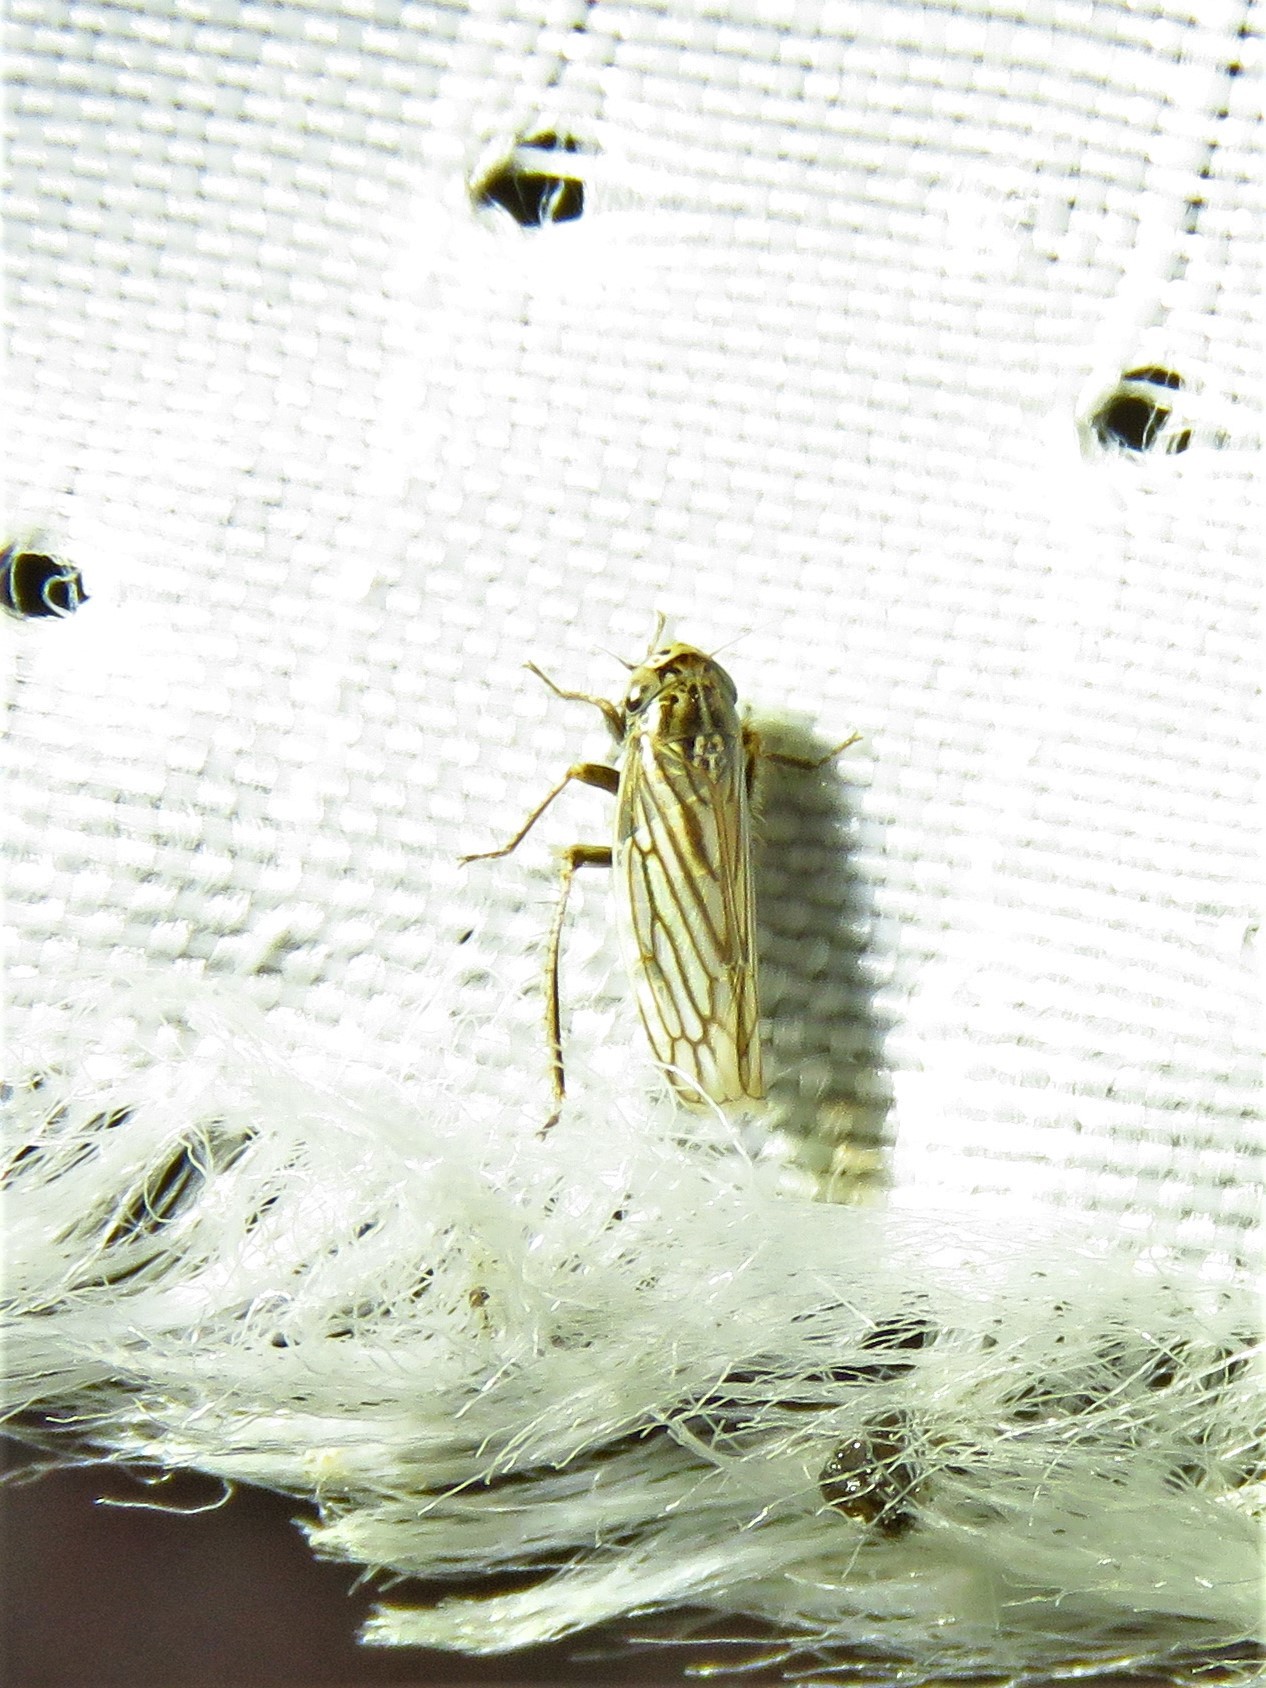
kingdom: Animalia
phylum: Arthropoda
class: Insecta
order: Hemiptera
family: Cicadellidae
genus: Exitianus
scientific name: Exitianus exitiosus
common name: Gray lawn leafhopper
